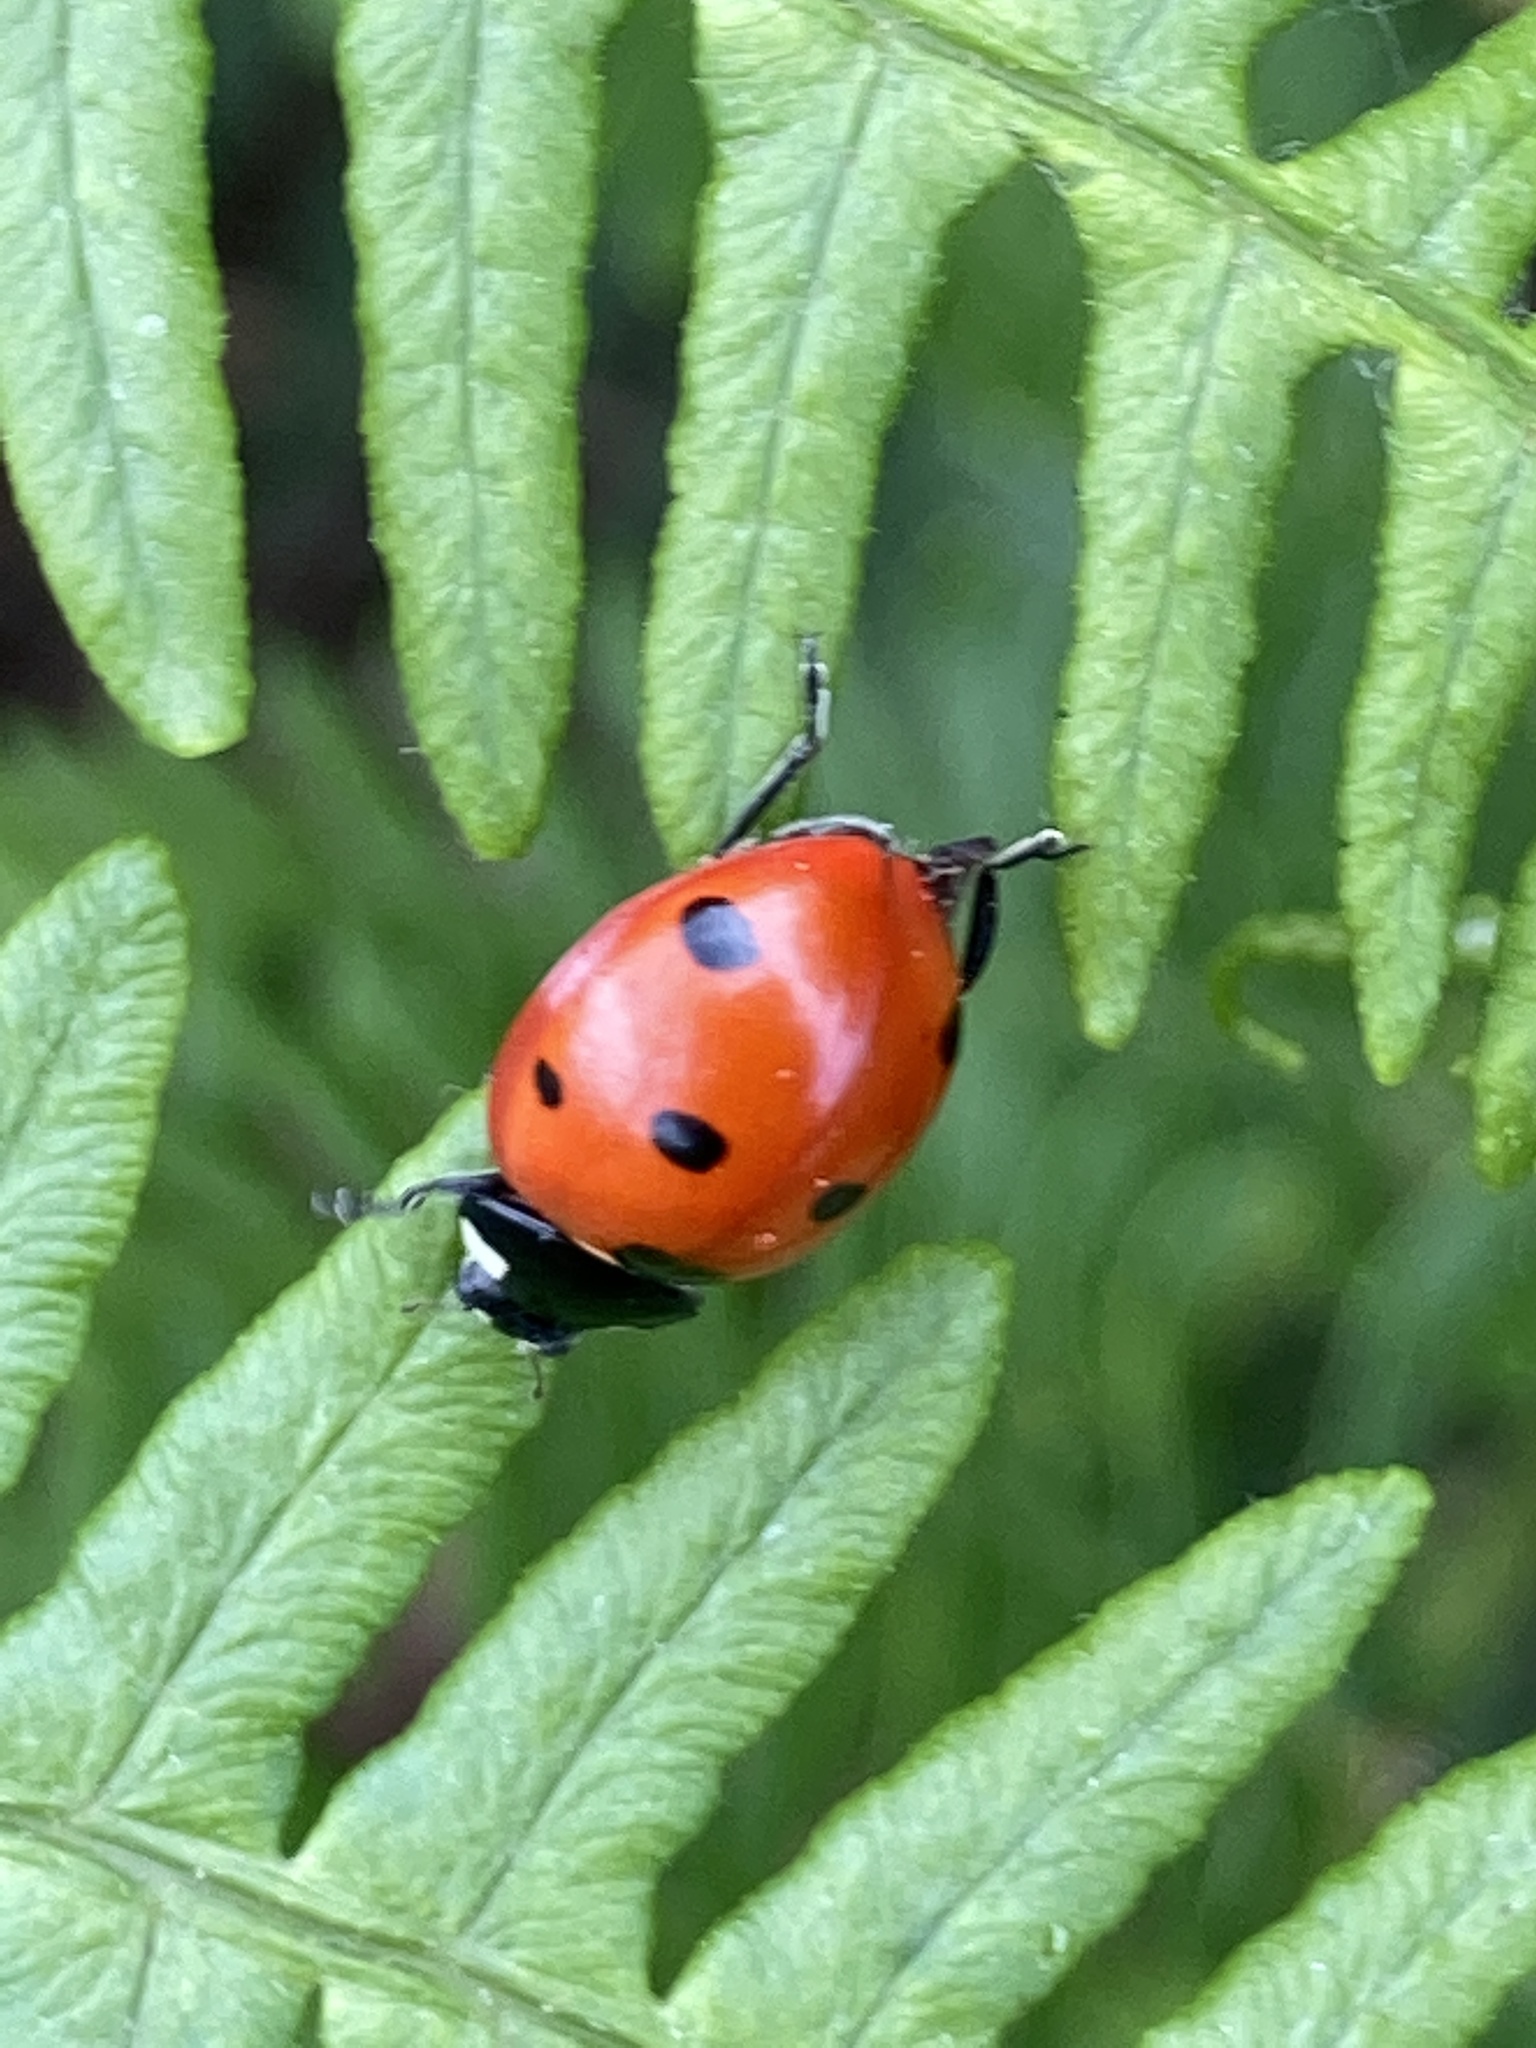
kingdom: Animalia
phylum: Arthropoda
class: Insecta
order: Coleoptera
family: Coccinellidae
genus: Coccinella
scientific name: Coccinella septempunctata
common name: Sevenspotted lady beetle
